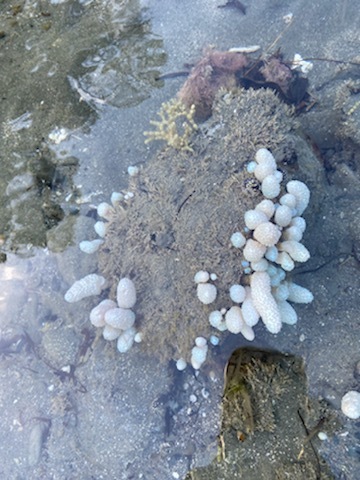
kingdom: Animalia
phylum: Chordata
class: Ascidiacea
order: Aplousobranchia
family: Polycitoridae
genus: Eudistoma
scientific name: Eudistoma elongatum
